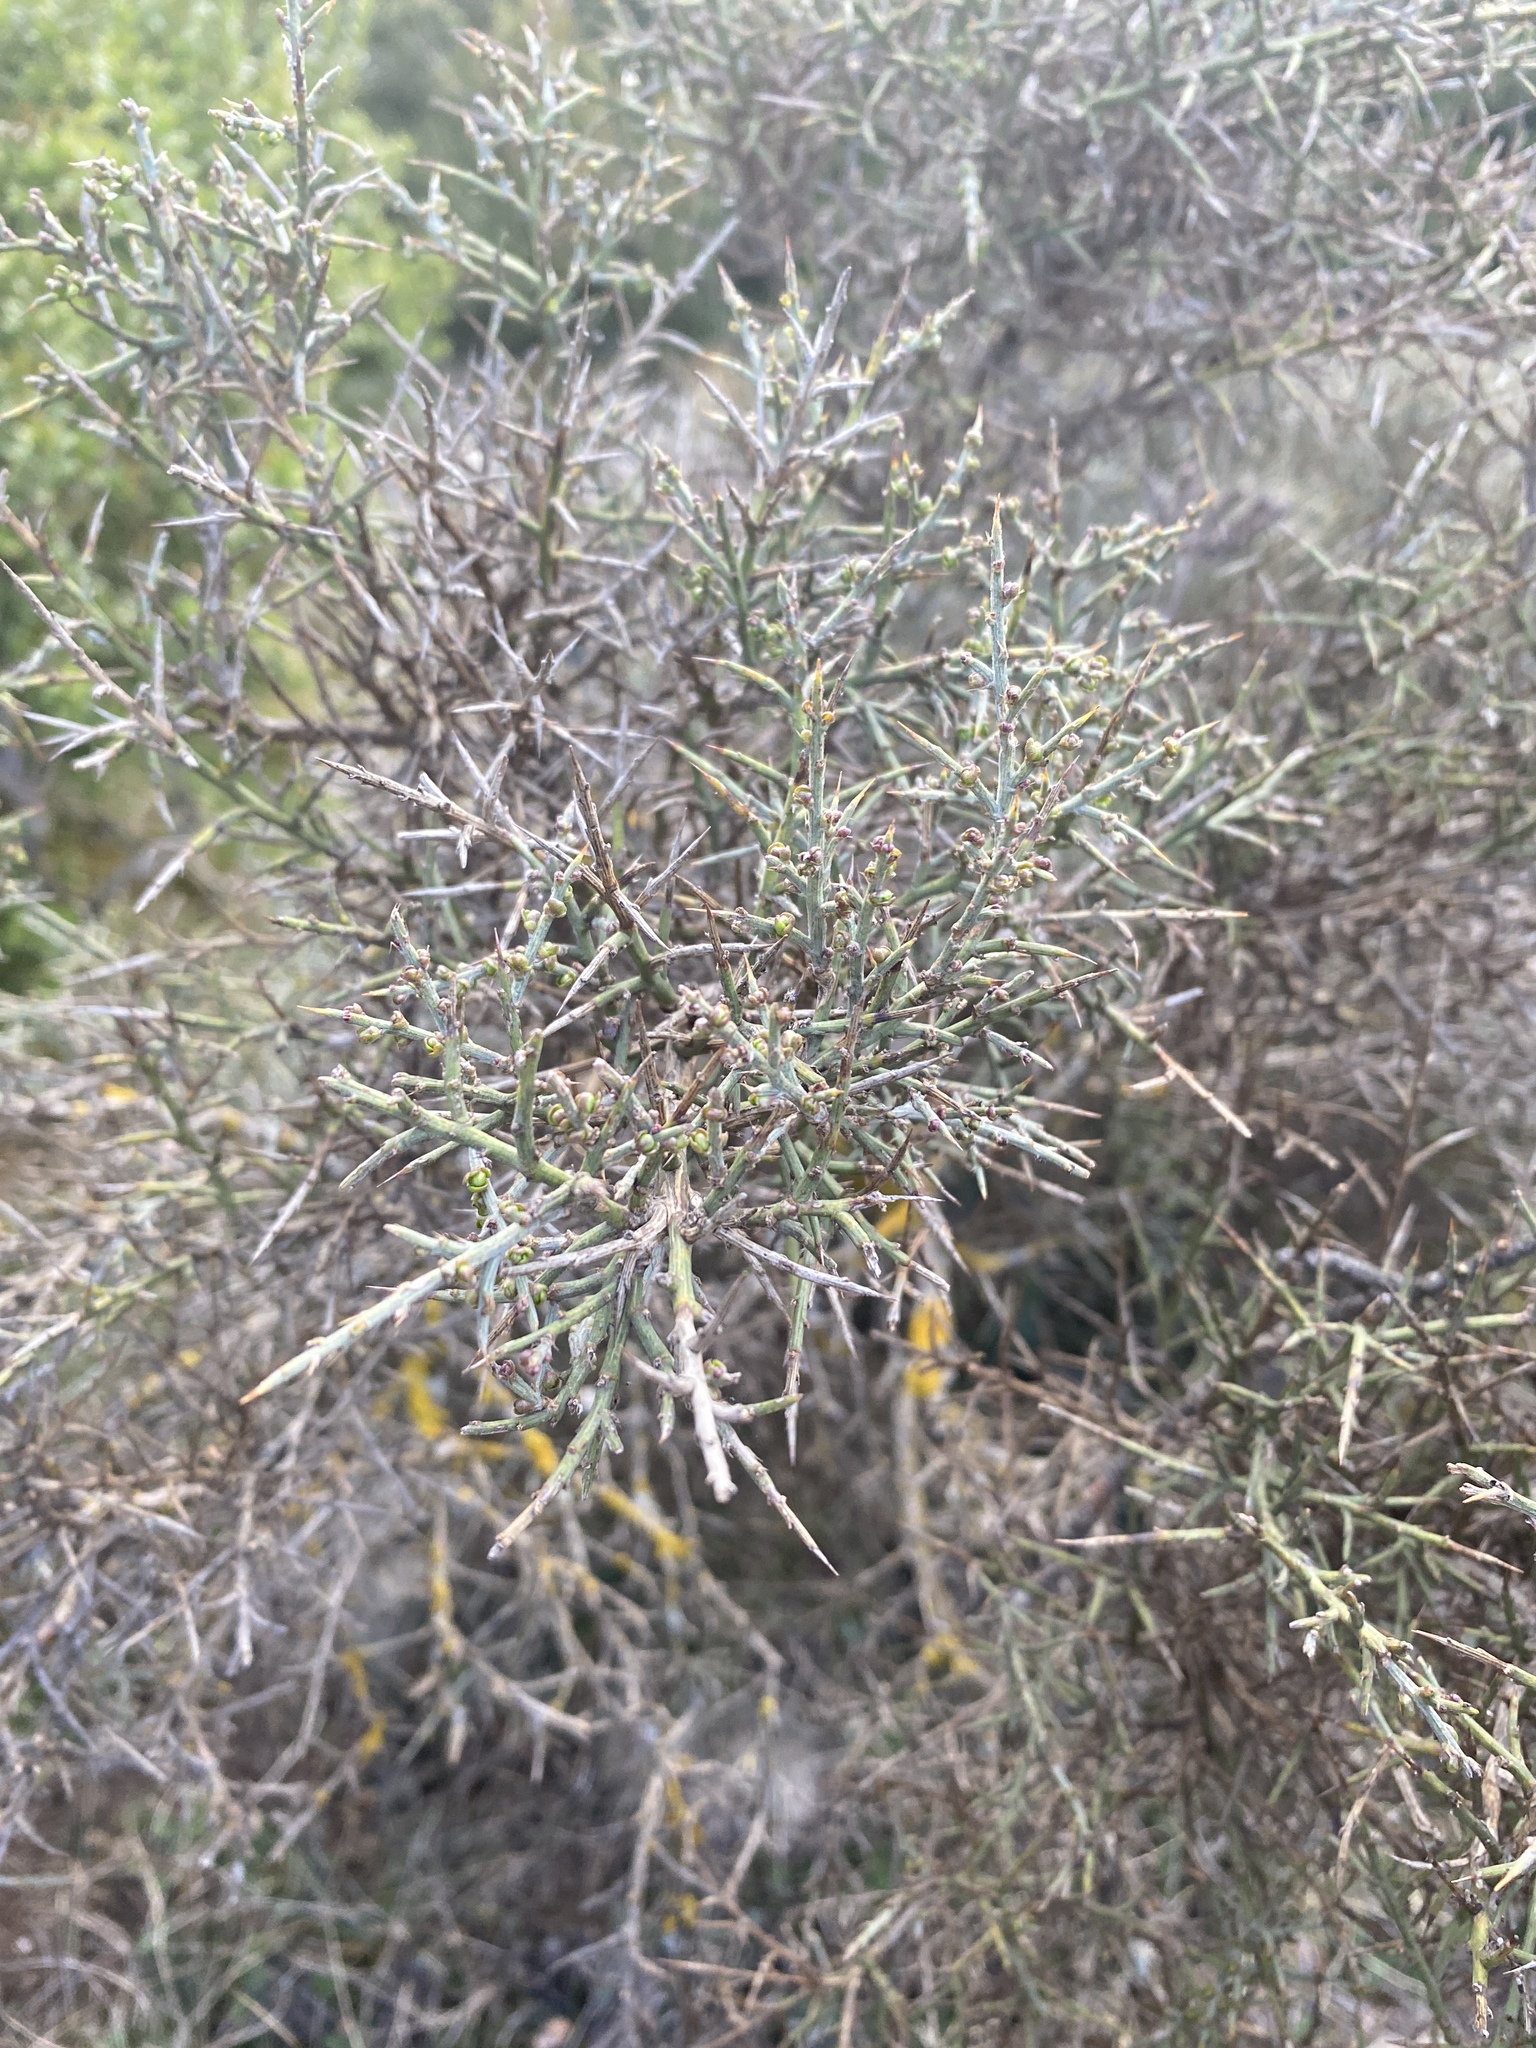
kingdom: Plantae
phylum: Tracheophyta
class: Magnoliopsida
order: Fabales
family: Fabaceae
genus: Genista
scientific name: Genista scorpius
